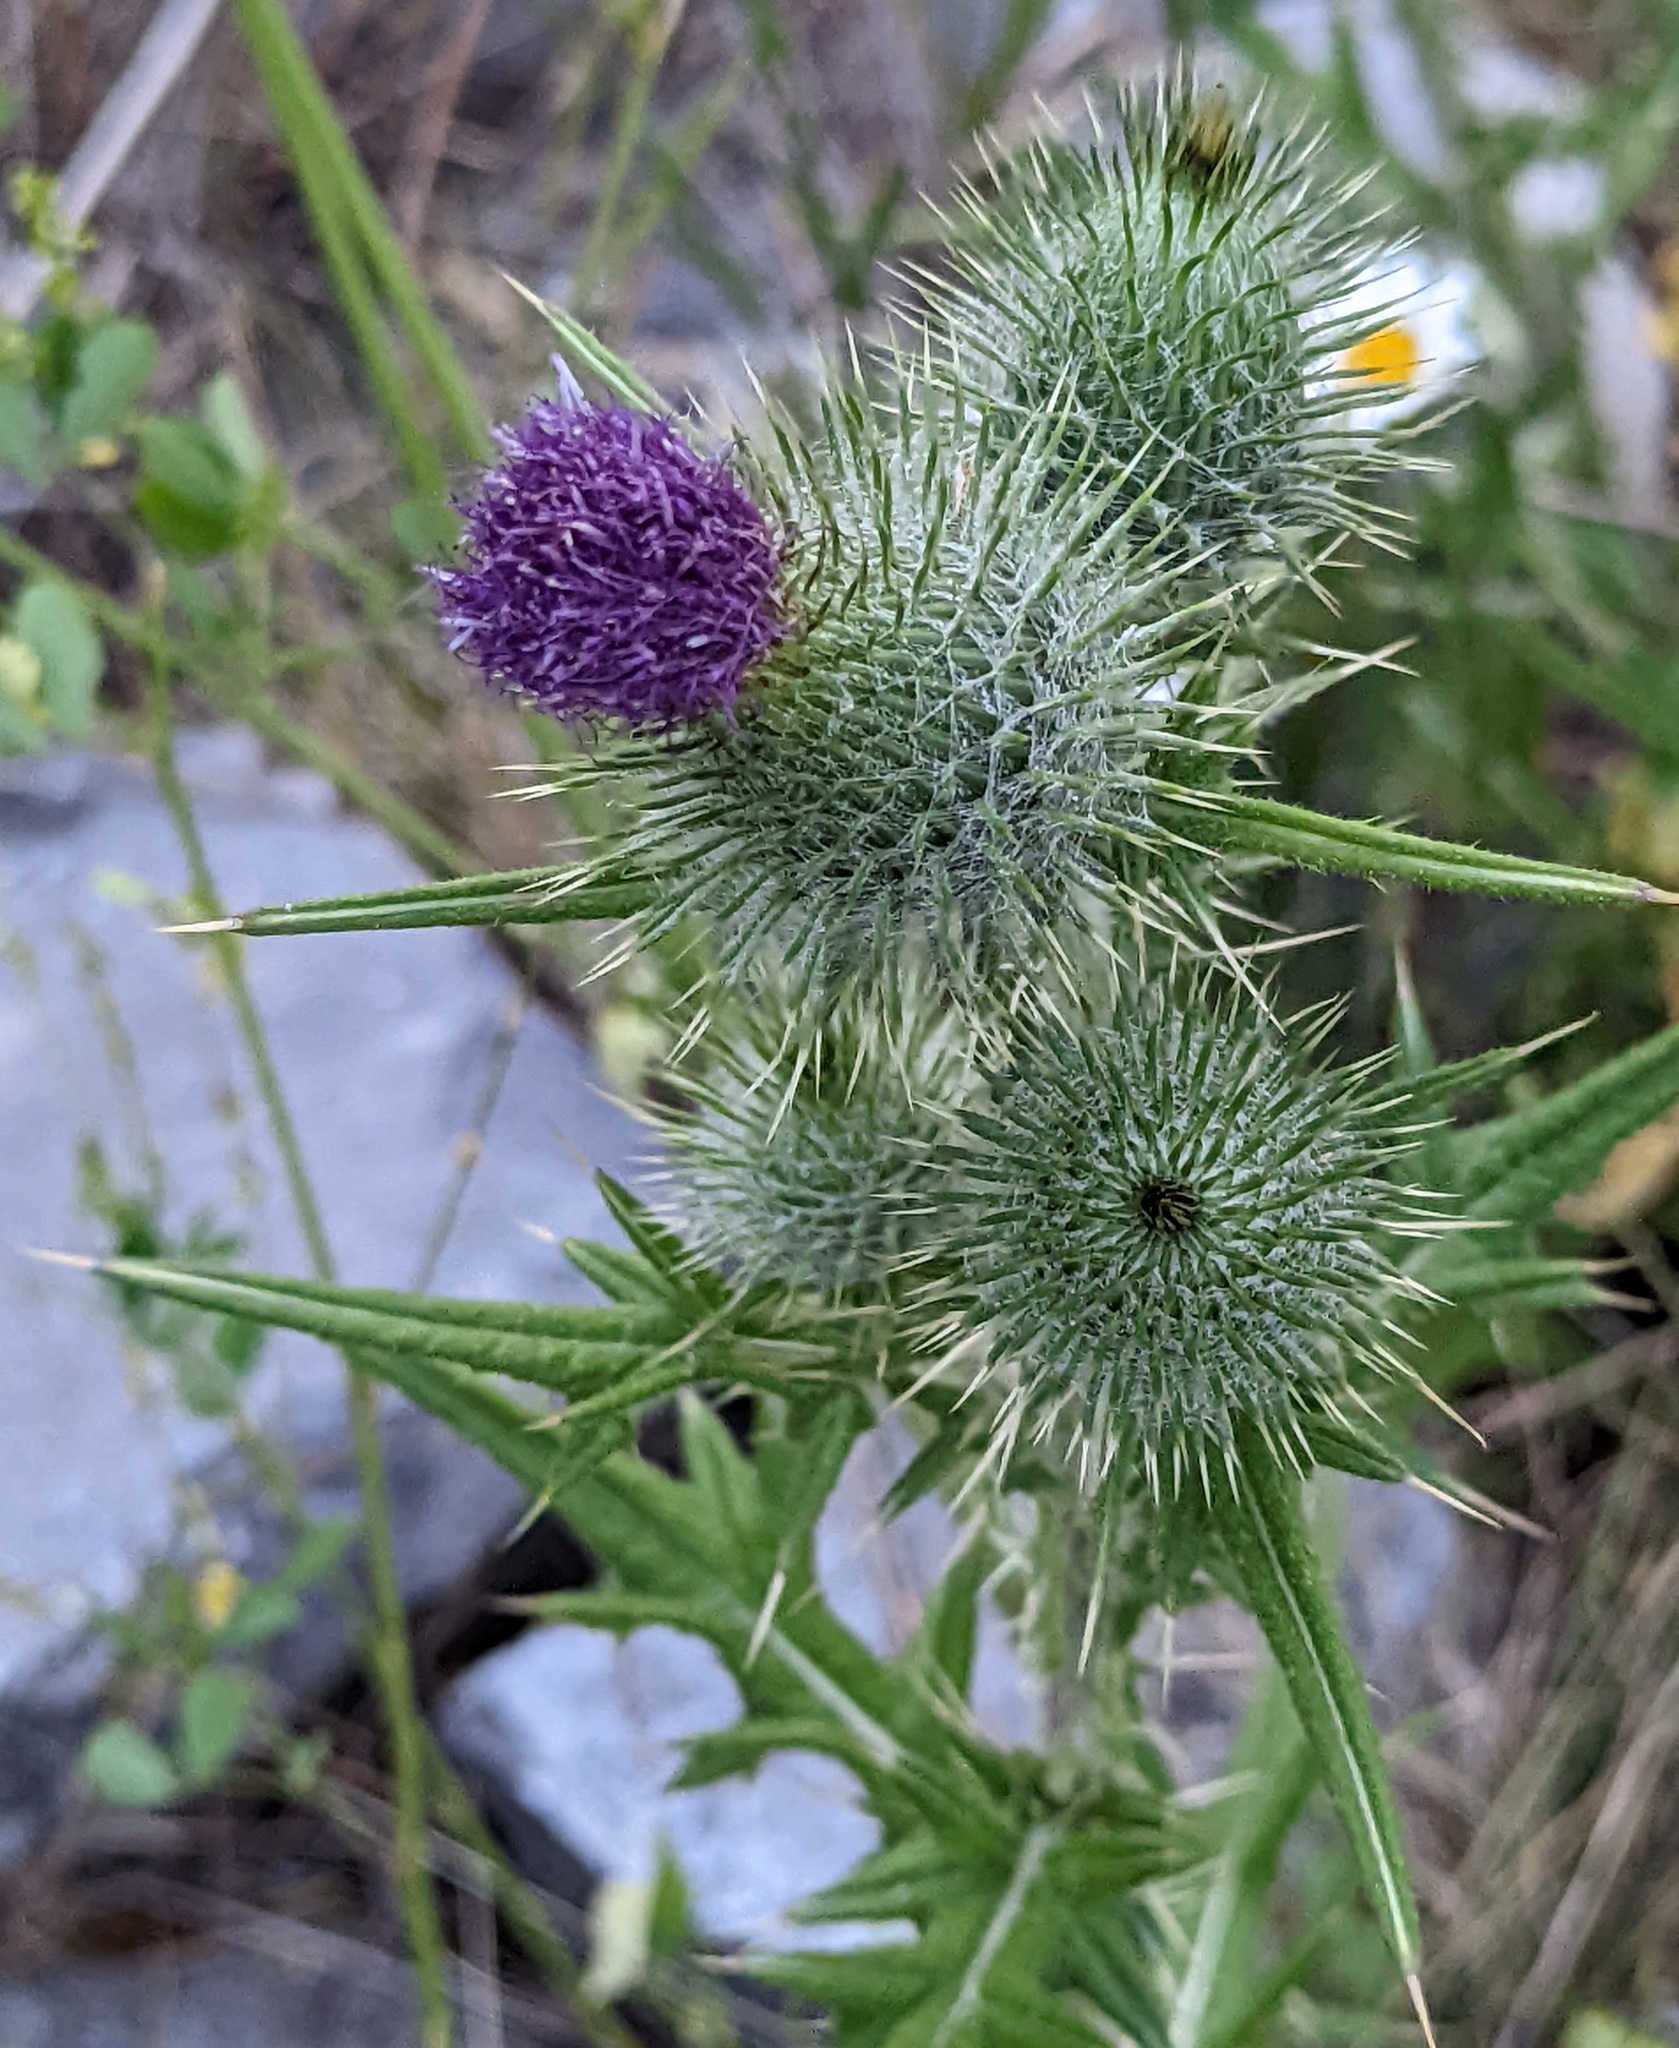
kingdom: Plantae
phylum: Tracheophyta
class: Magnoliopsida
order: Asterales
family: Asteraceae
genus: Cirsium
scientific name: Cirsium vulgare
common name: Bull thistle
